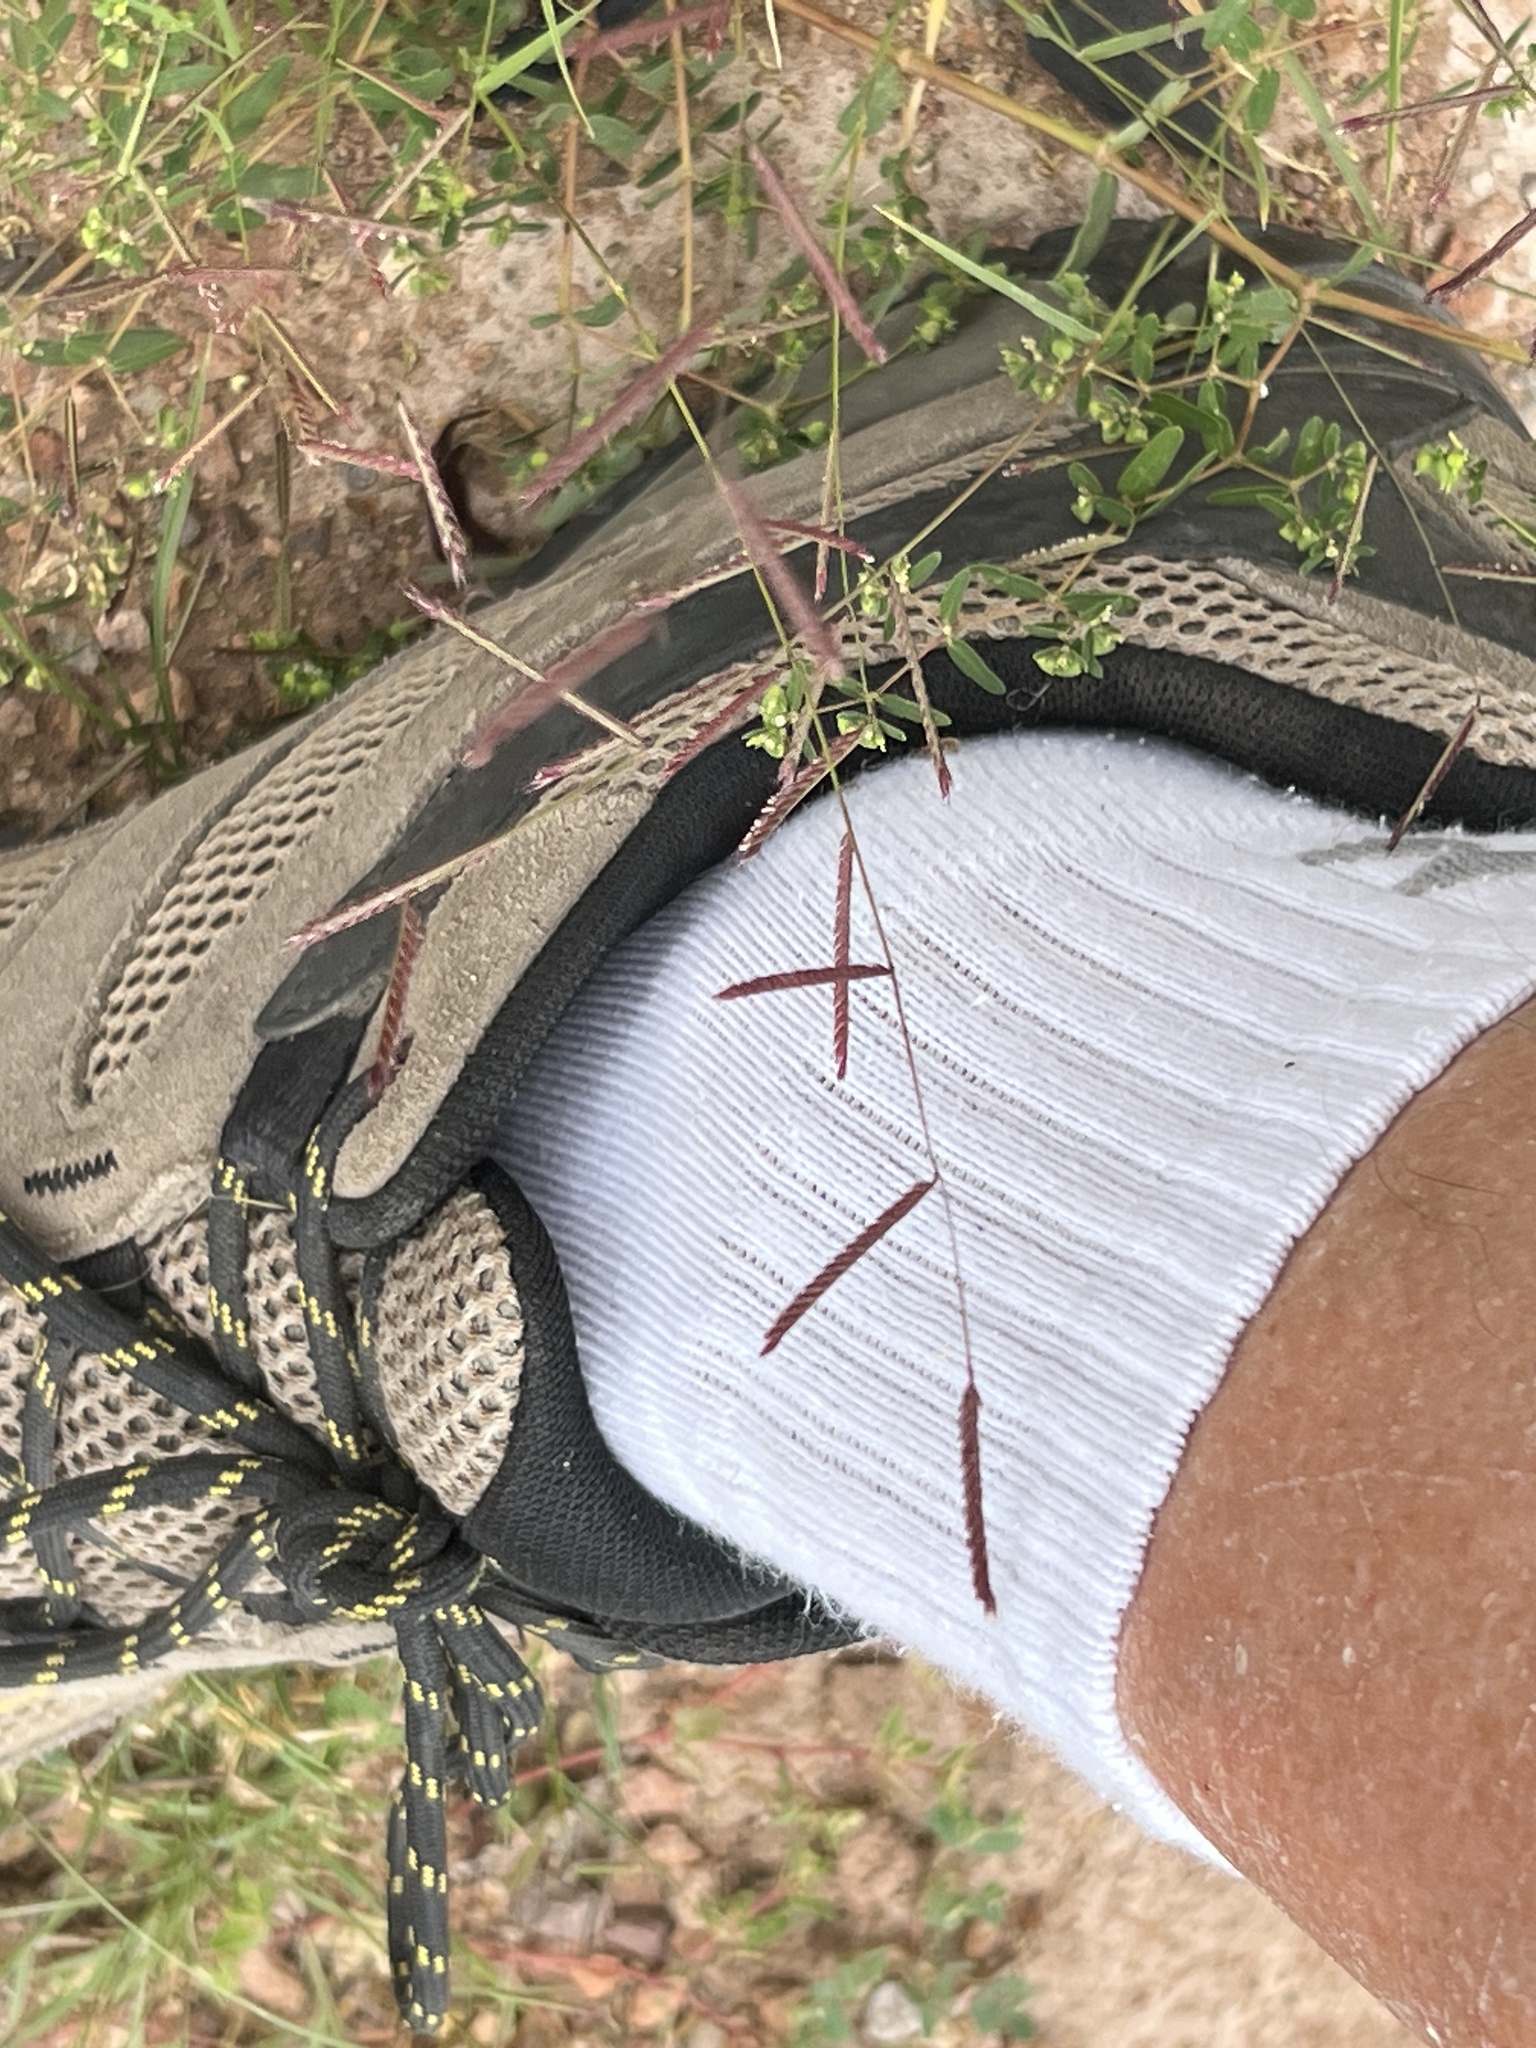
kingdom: Plantae
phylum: Tracheophyta
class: Liliopsida
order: Poales
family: Poaceae
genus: Bouteloua
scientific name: Bouteloua barbata
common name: Six-weeks grama
